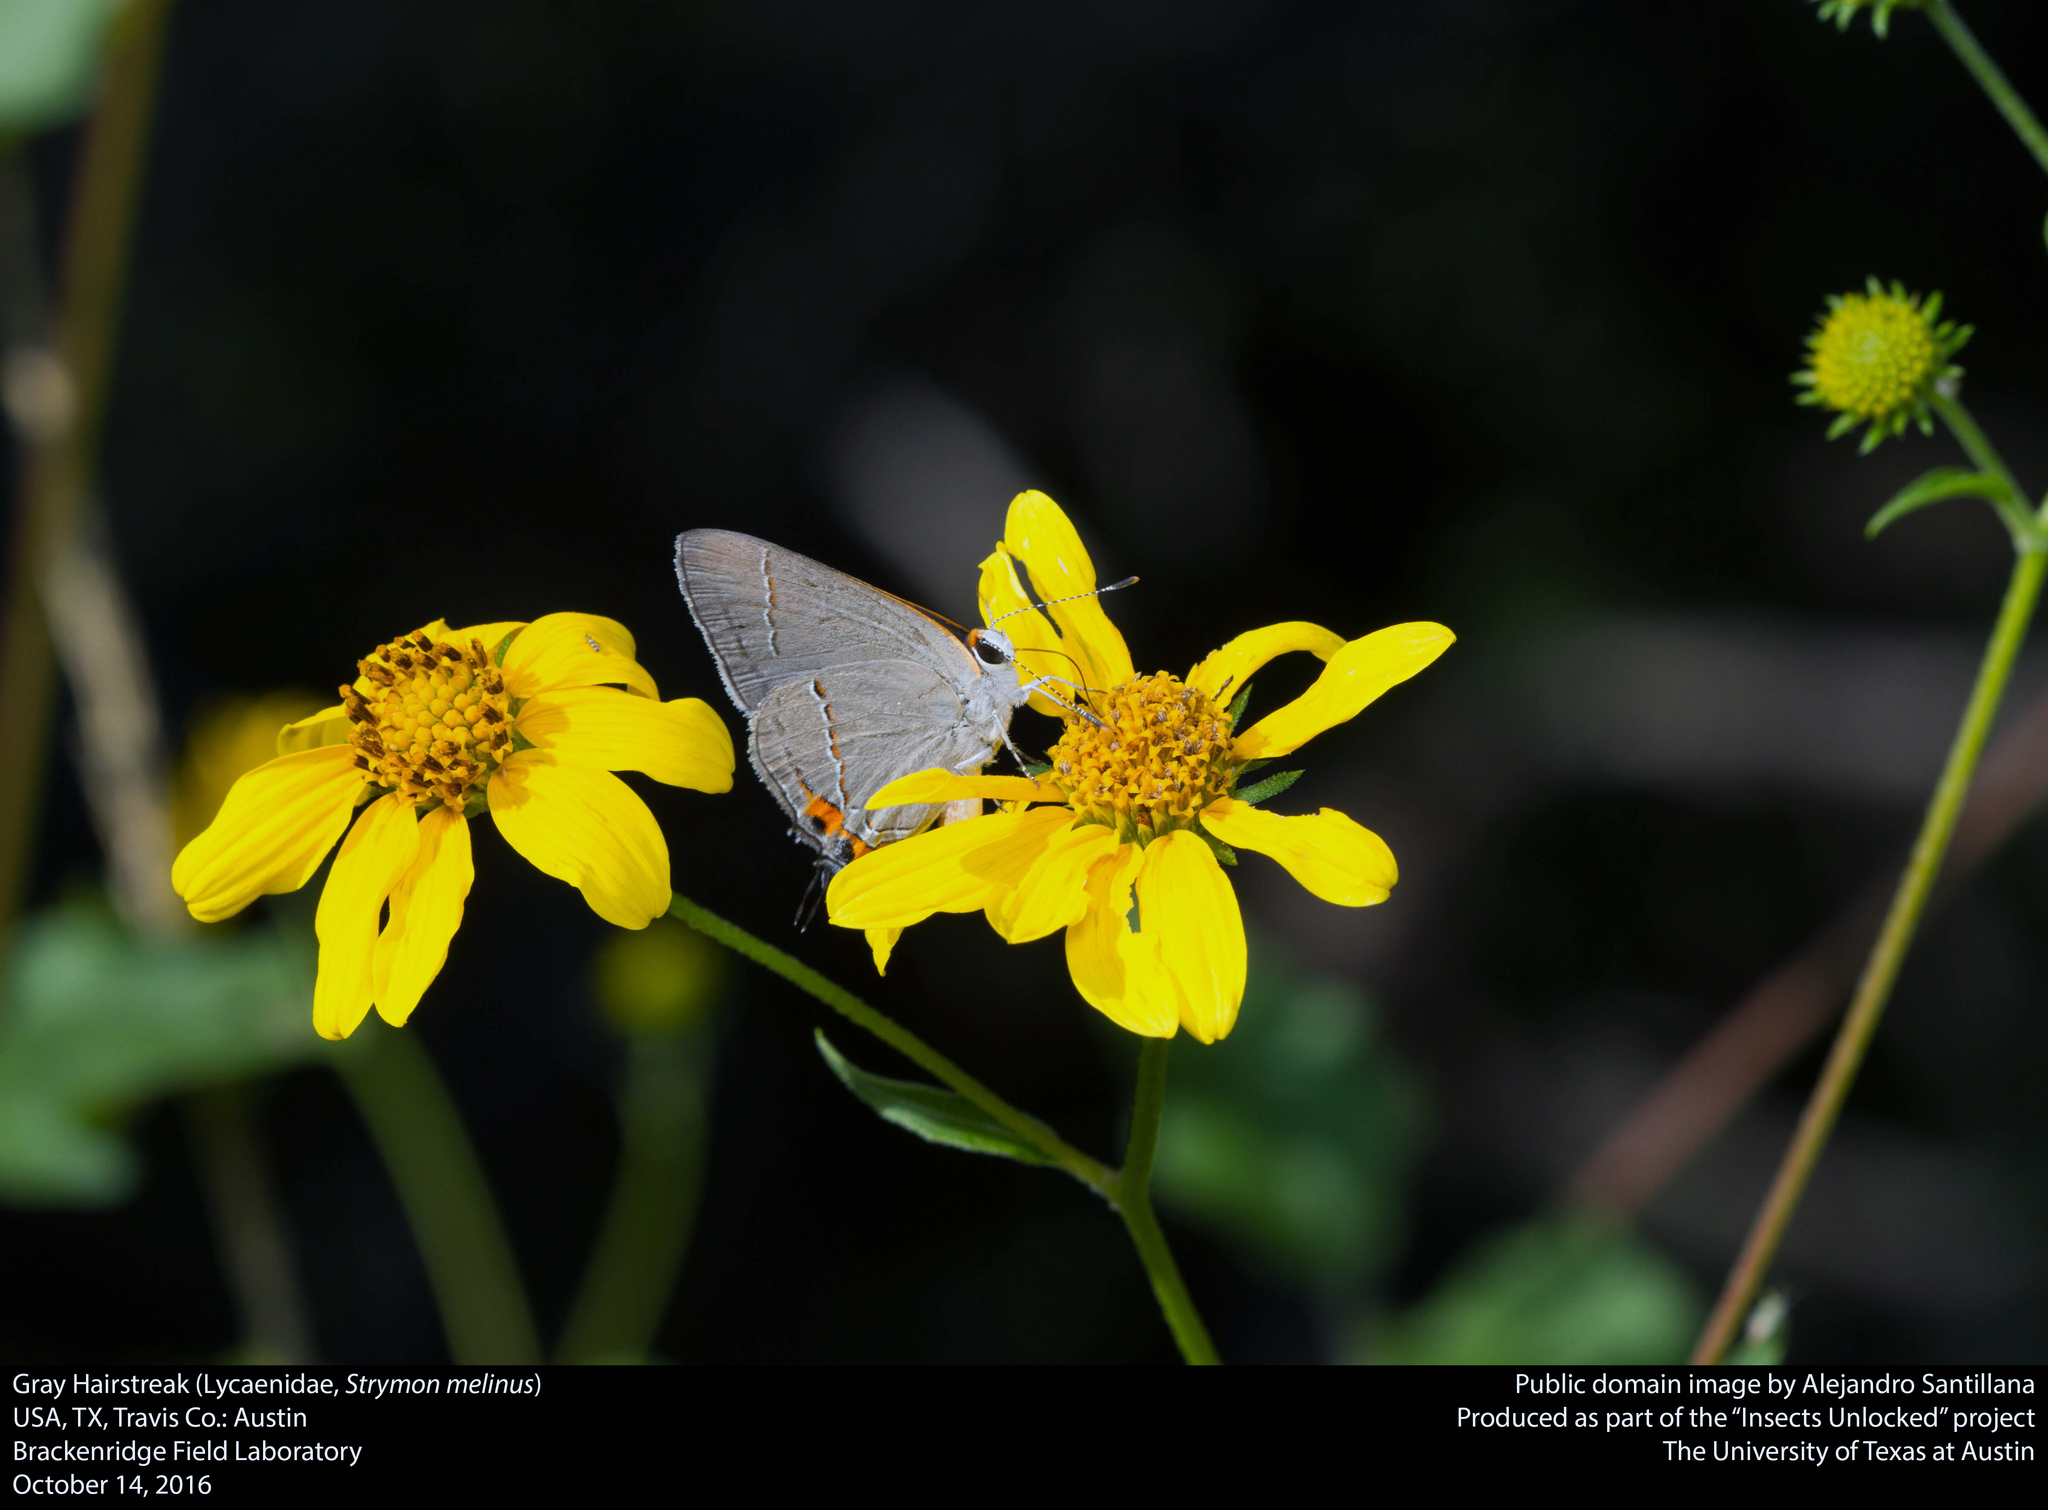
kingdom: Animalia
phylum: Arthropoda
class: Insecta
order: Lepidoptera
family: Lycaenidae
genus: Strymon
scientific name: Strymon melinus
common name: Gray hairstreak
